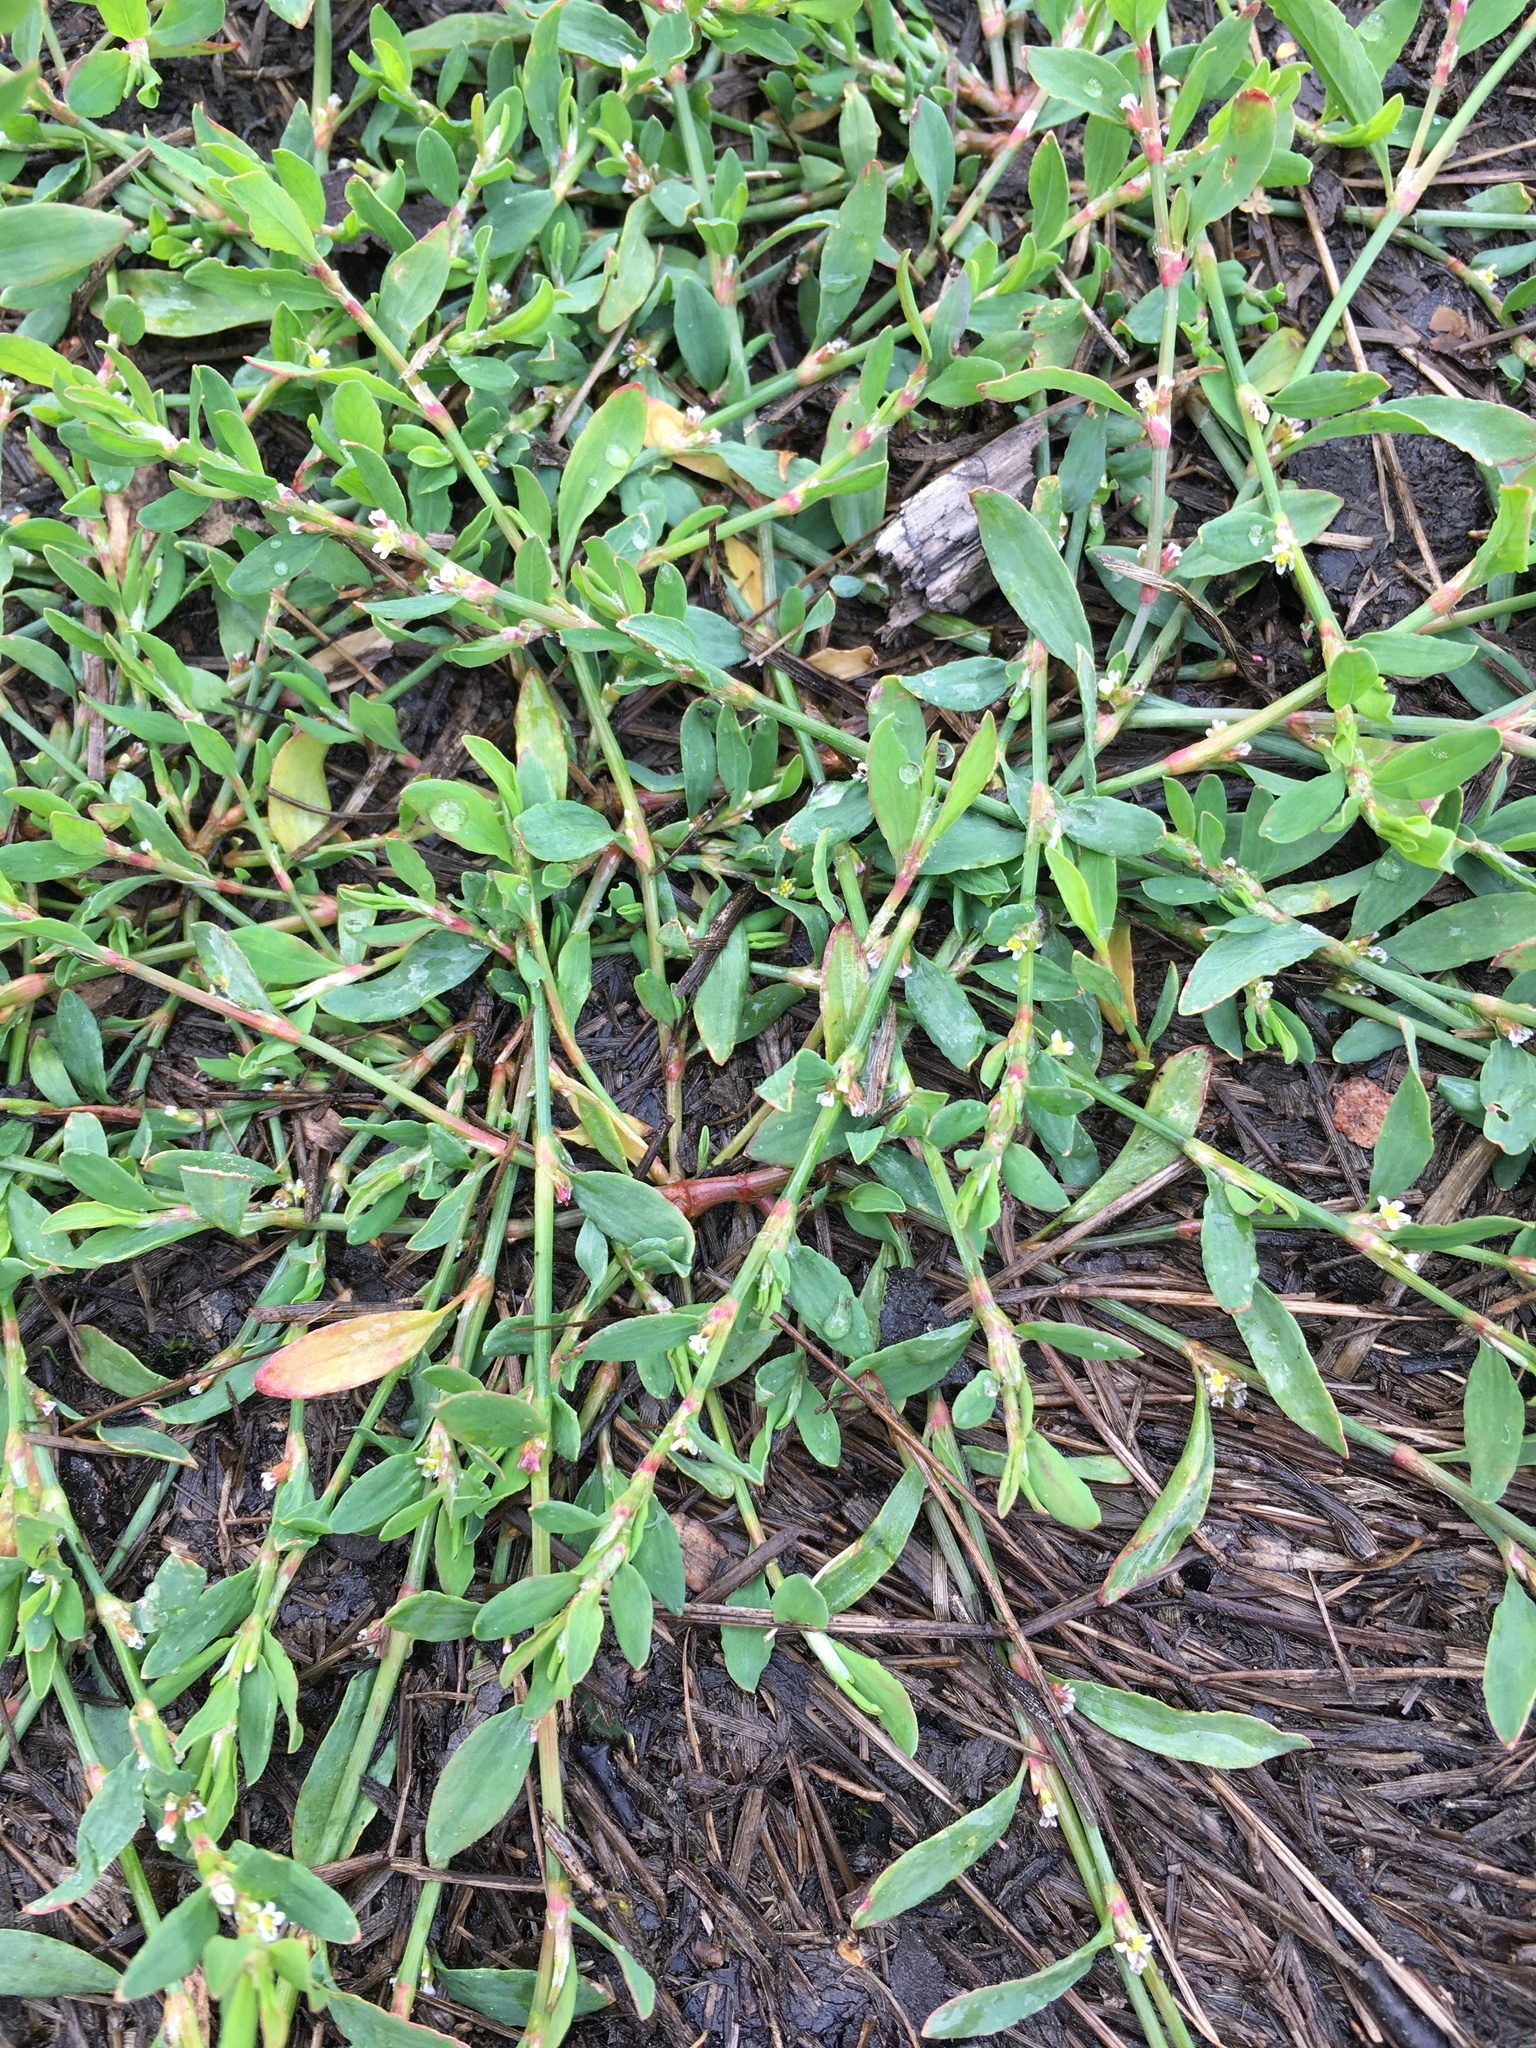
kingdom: Plantae
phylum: Tracheophyta
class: Magnoliopsida
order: Caryophyllales
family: Polygonaceae
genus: Polygonum
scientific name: Polygonum
